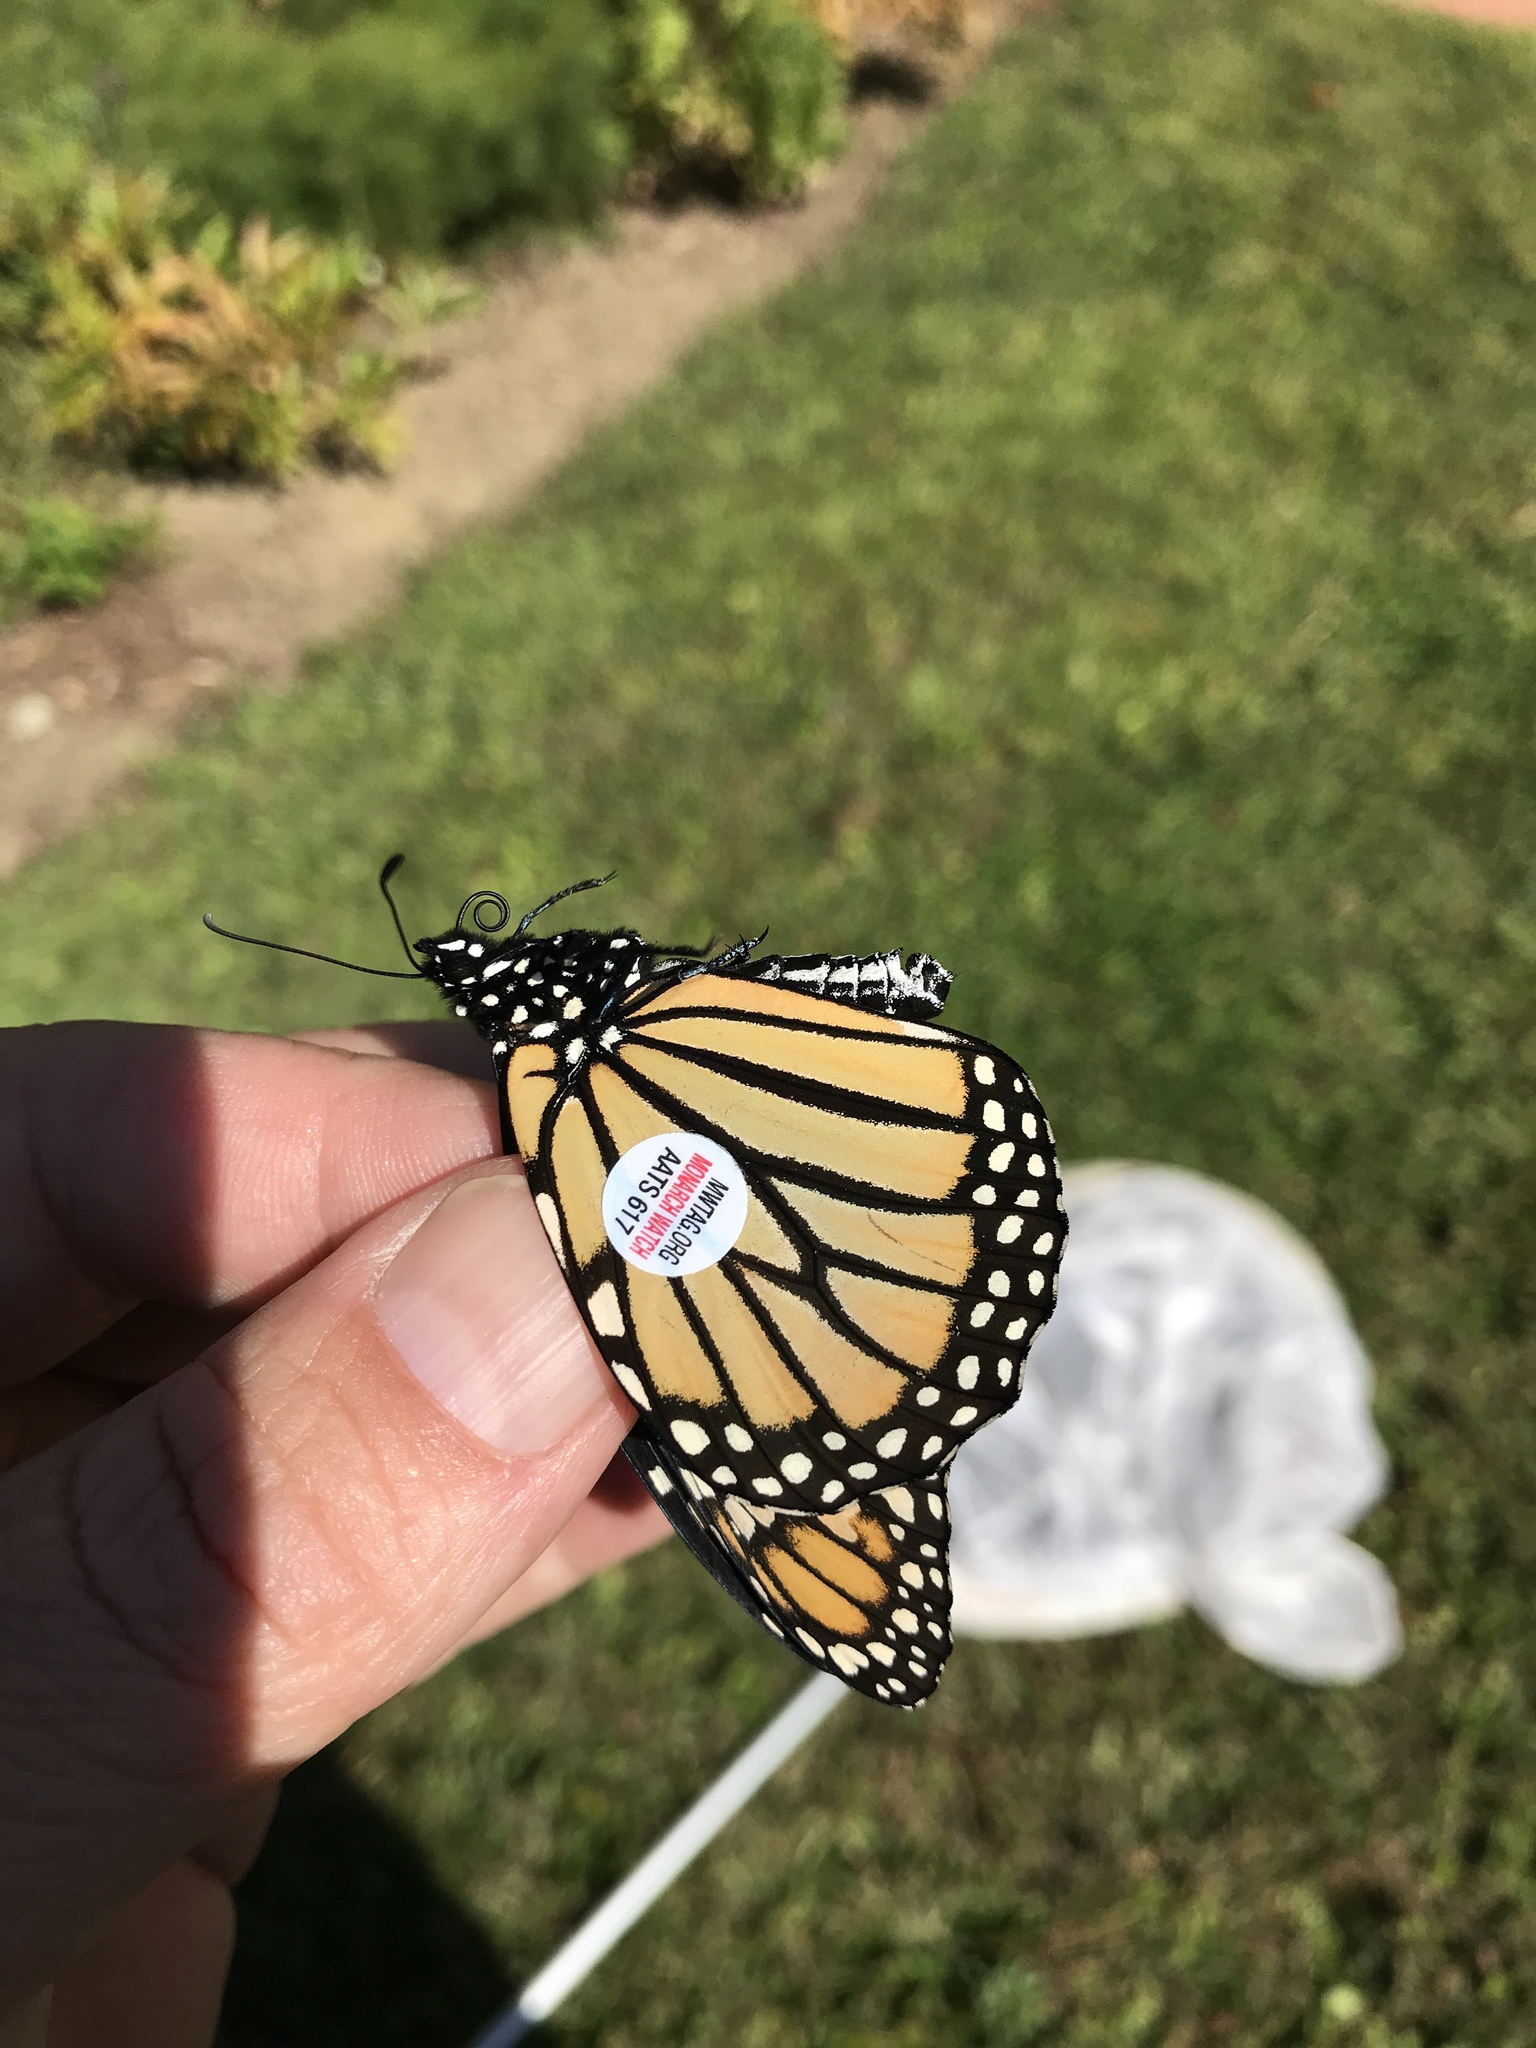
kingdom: Animalia
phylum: Arthropoda
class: Insecta
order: Lepidoptera
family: Nymphalidae
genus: Danaus
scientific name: Danaus plexippus
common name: Monarch
